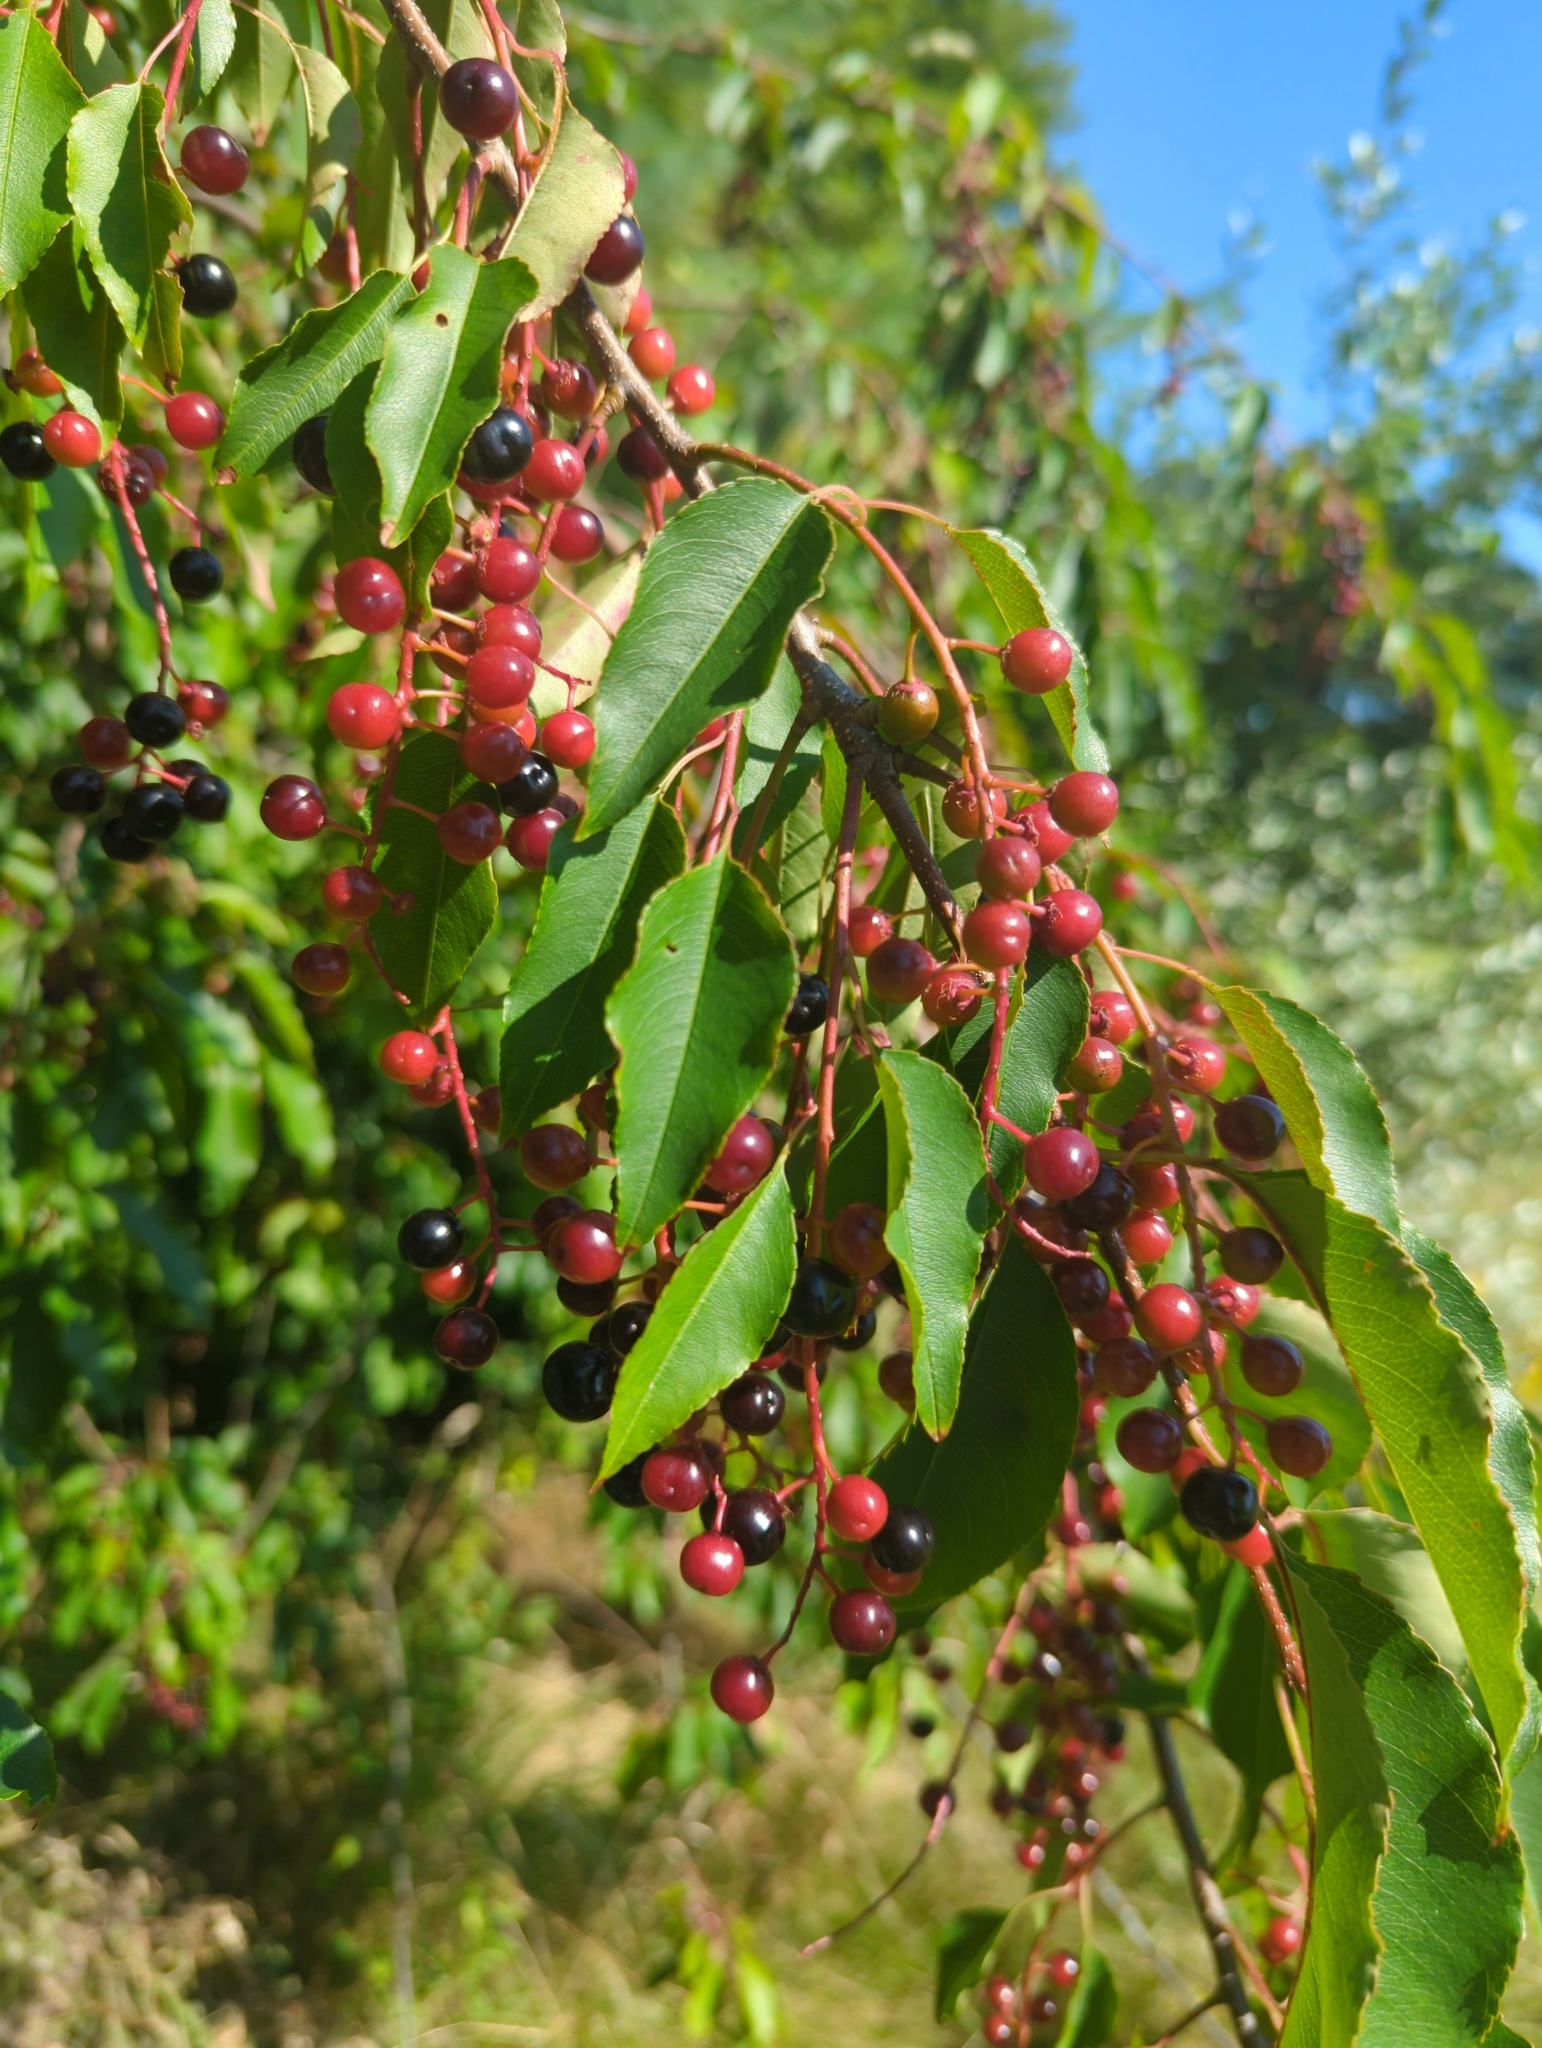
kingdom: Plantae
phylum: Tracheophyta
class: Magnoliopsida
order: Rosales
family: Rosaceae
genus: Prunus
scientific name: Prunus serotina
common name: Black cherry
